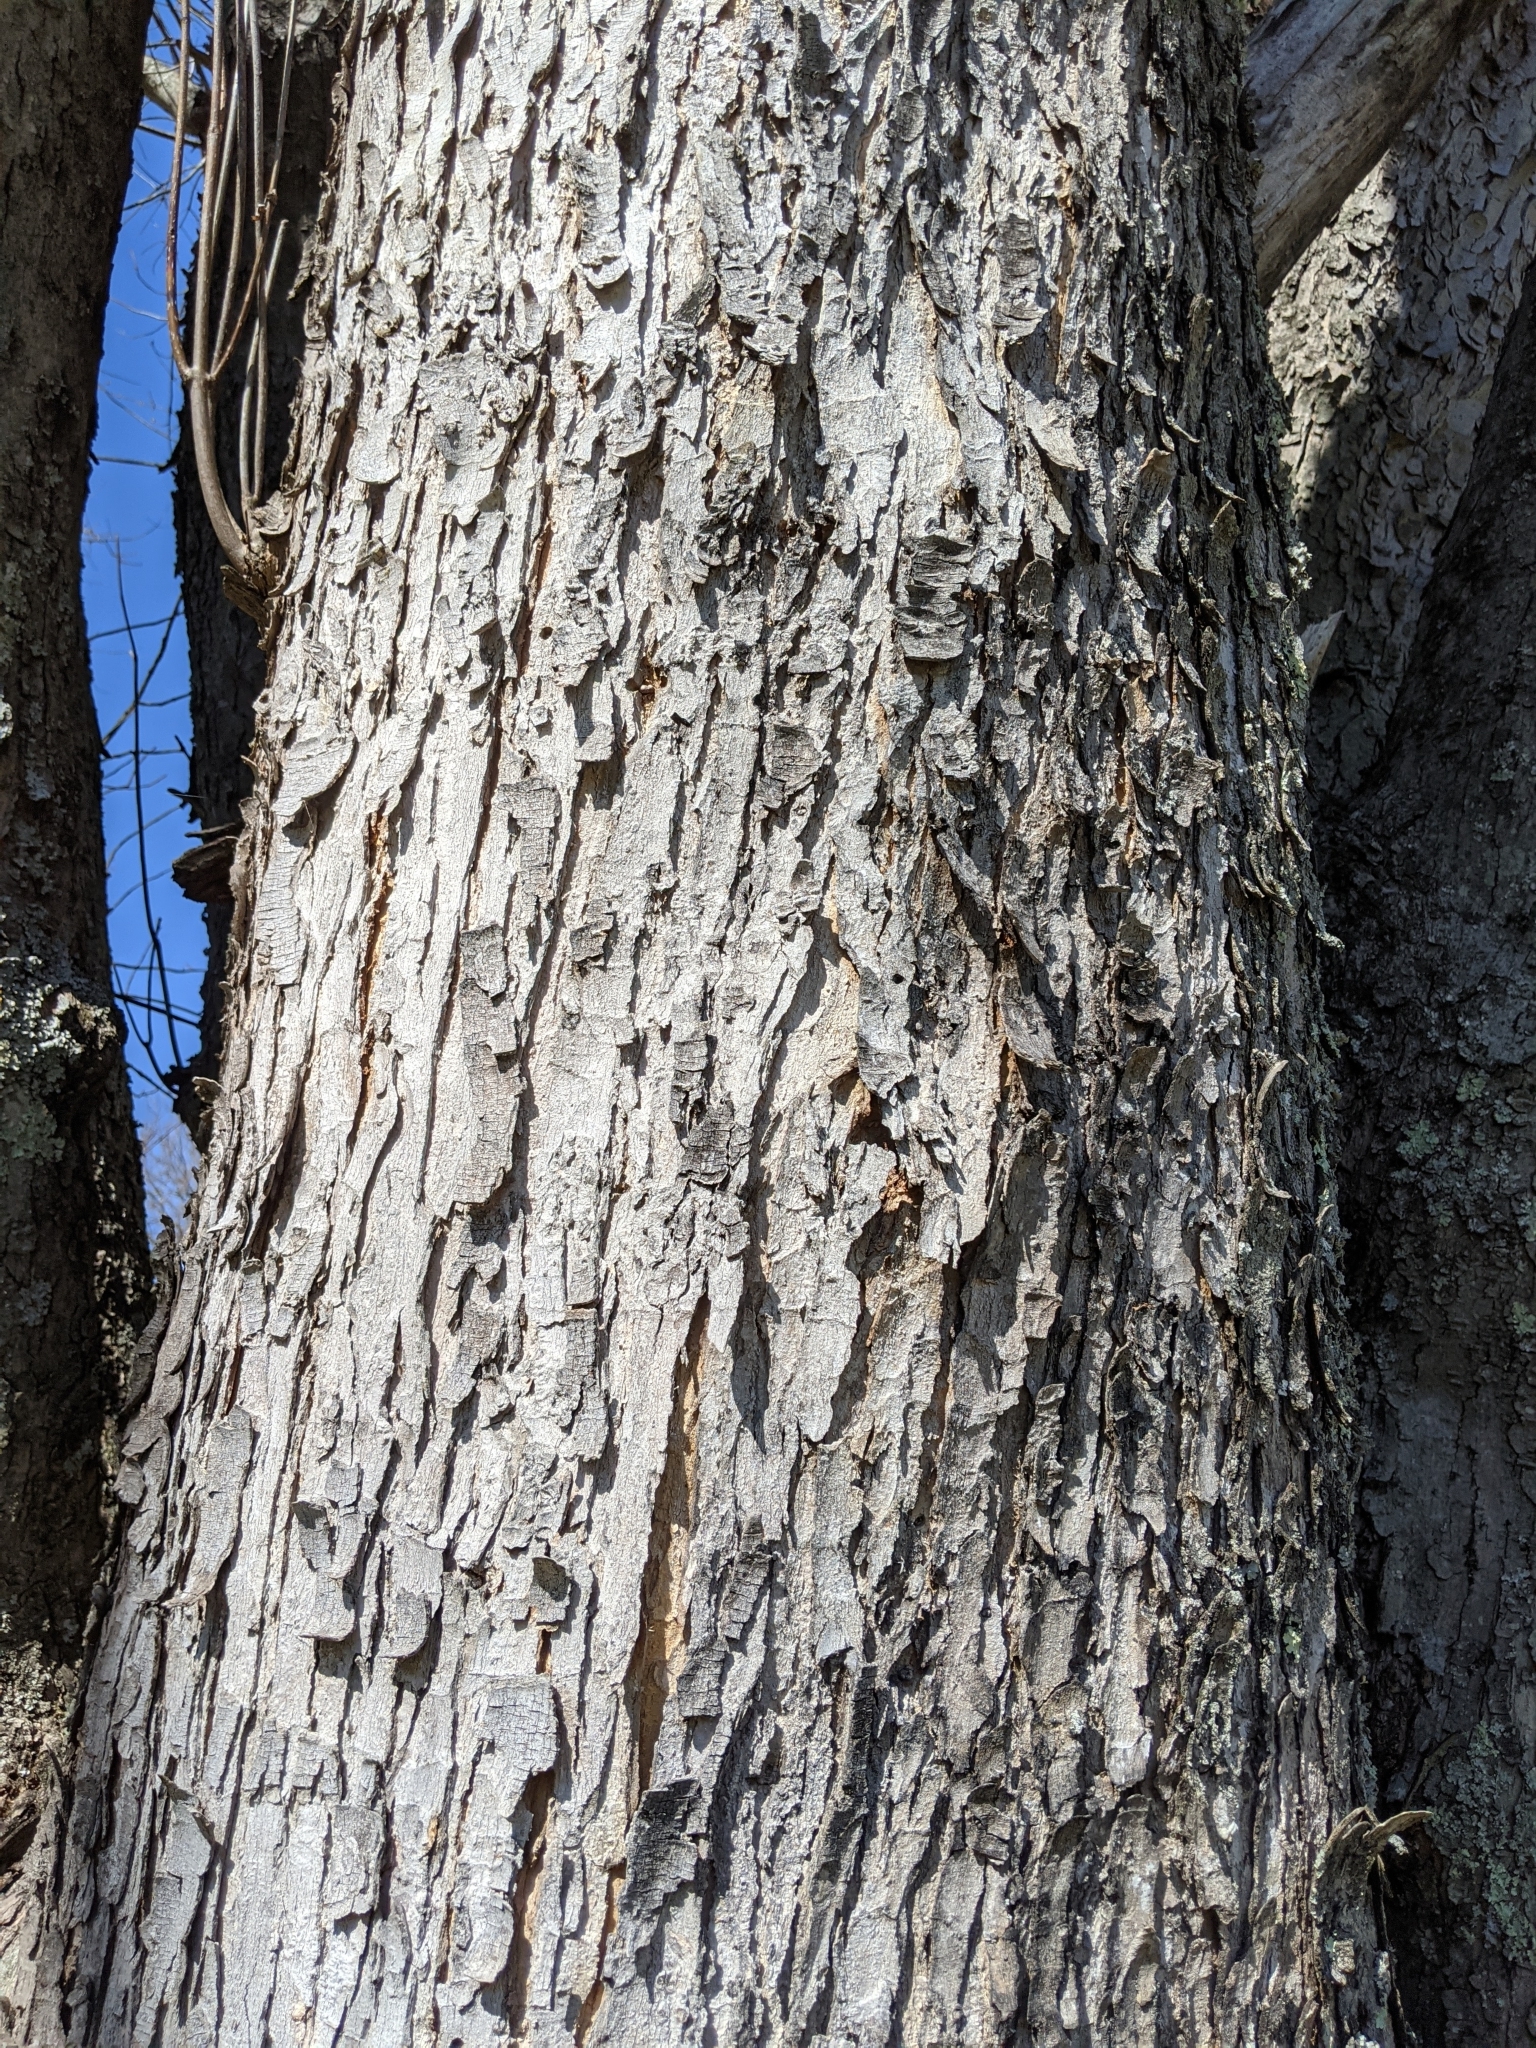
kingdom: Plantae
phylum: Tracheophyta
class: Magnoliopsida
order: Sapindales
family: Sapindaceae
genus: Acer
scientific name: Acer saccharinum
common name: Silver maple
